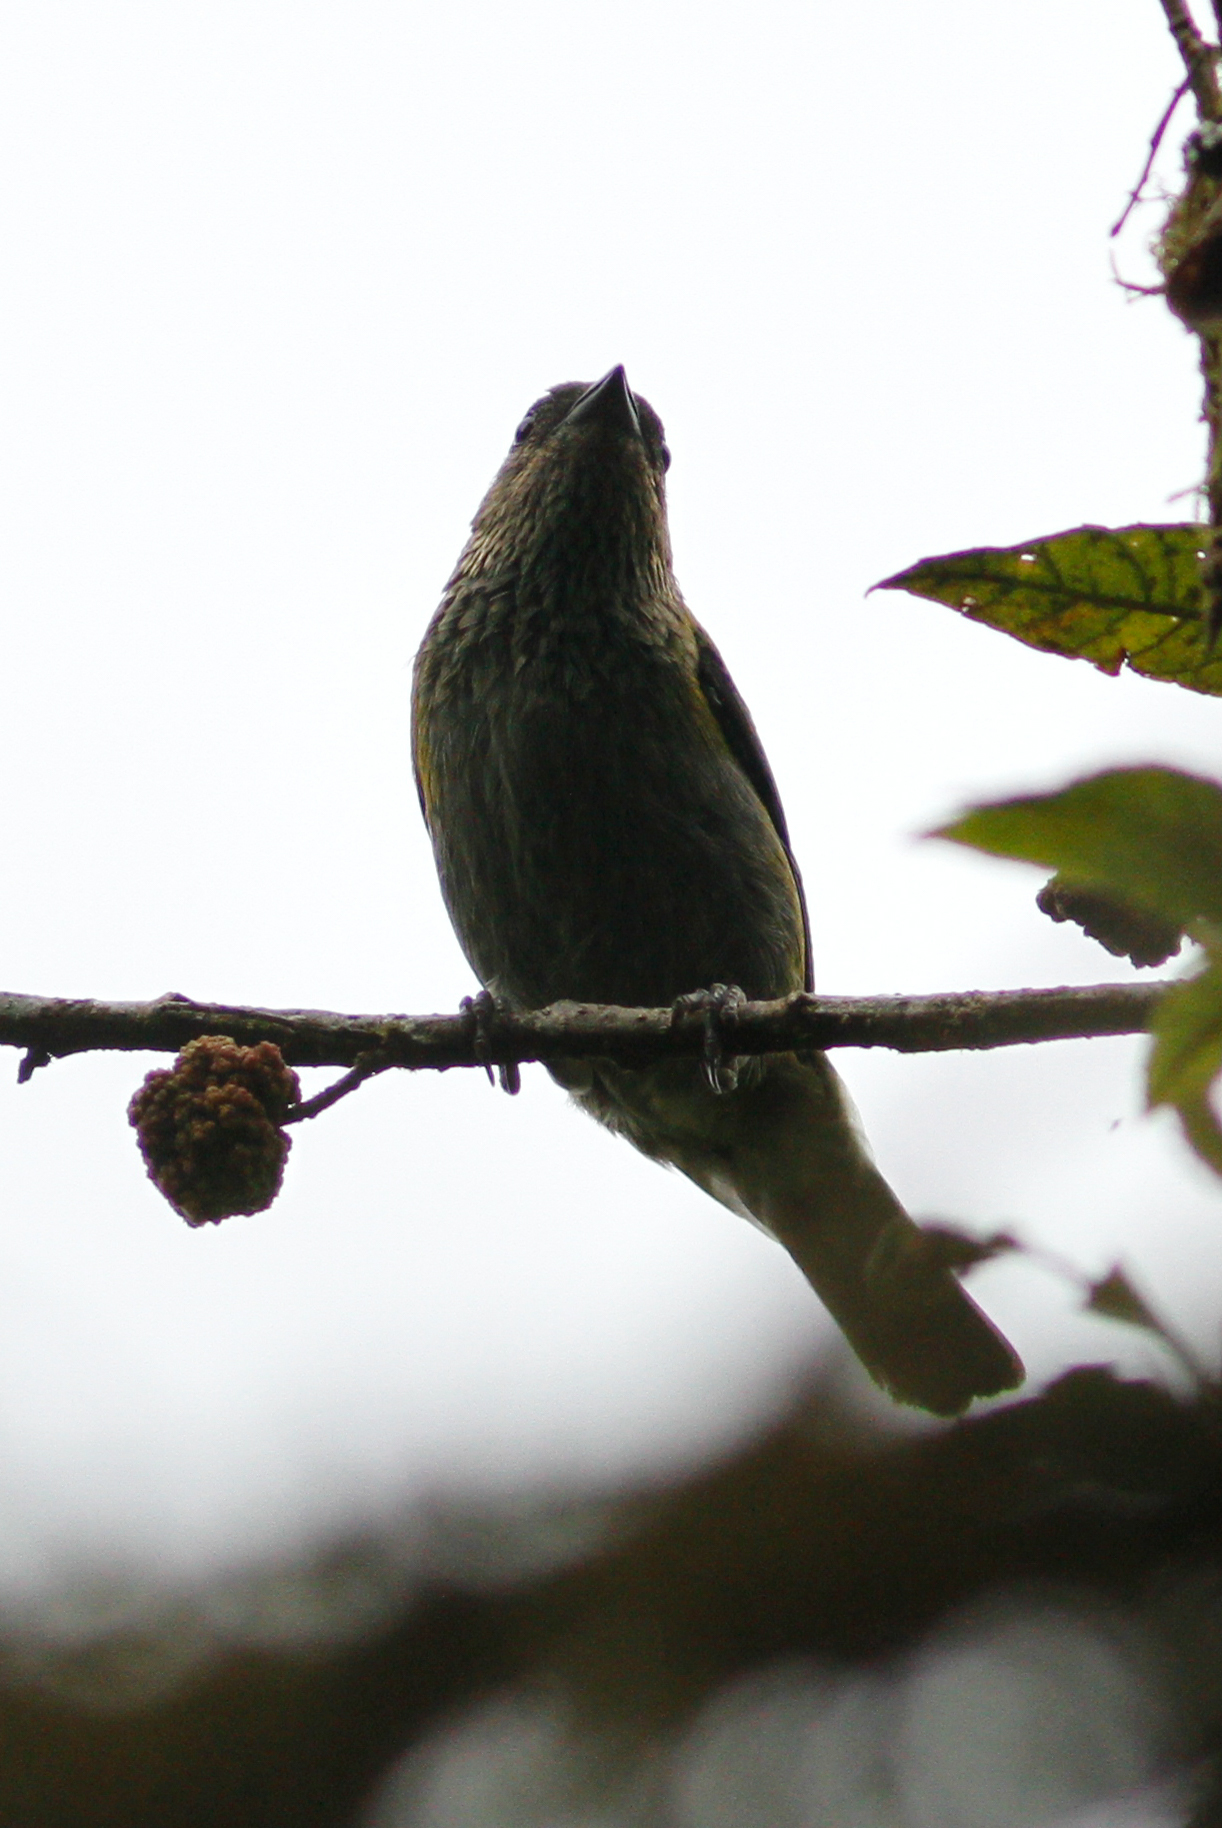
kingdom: Animalia
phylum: Chordata
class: Aves
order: Passeriformes
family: Thraupidae
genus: Stilpnia
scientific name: Stilpnia heinei
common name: Black-capped tanager
